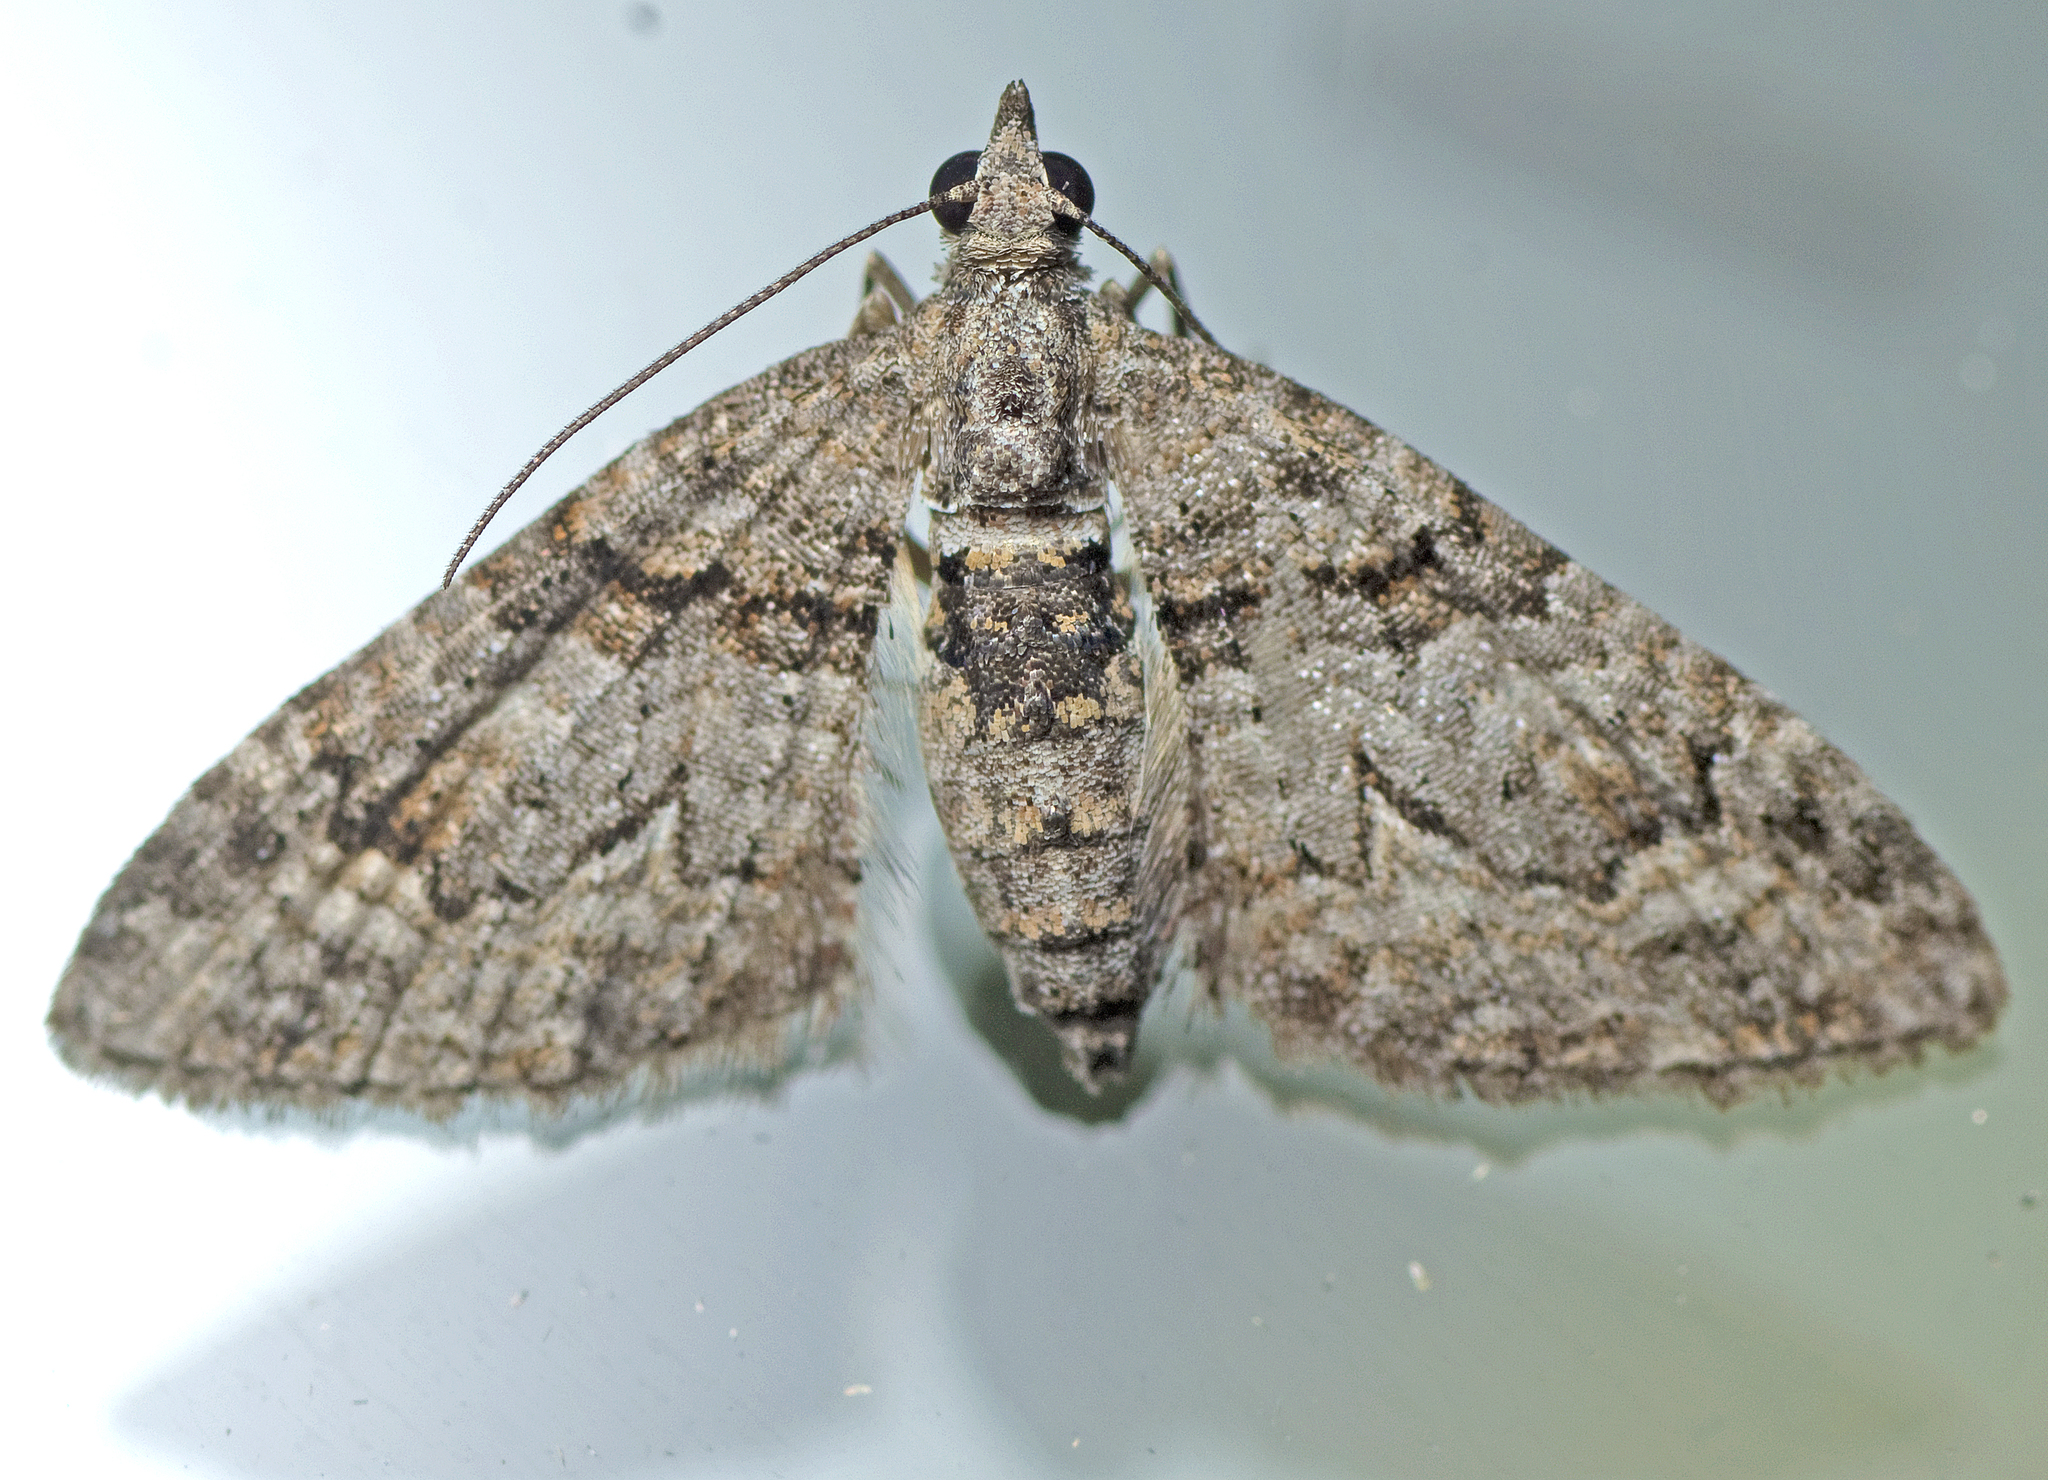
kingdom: Animalia
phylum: Arthropoda
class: Insecta
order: Lepidoptera
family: Geometridae
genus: Phrissogonus
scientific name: Phrissogonus laticostata
